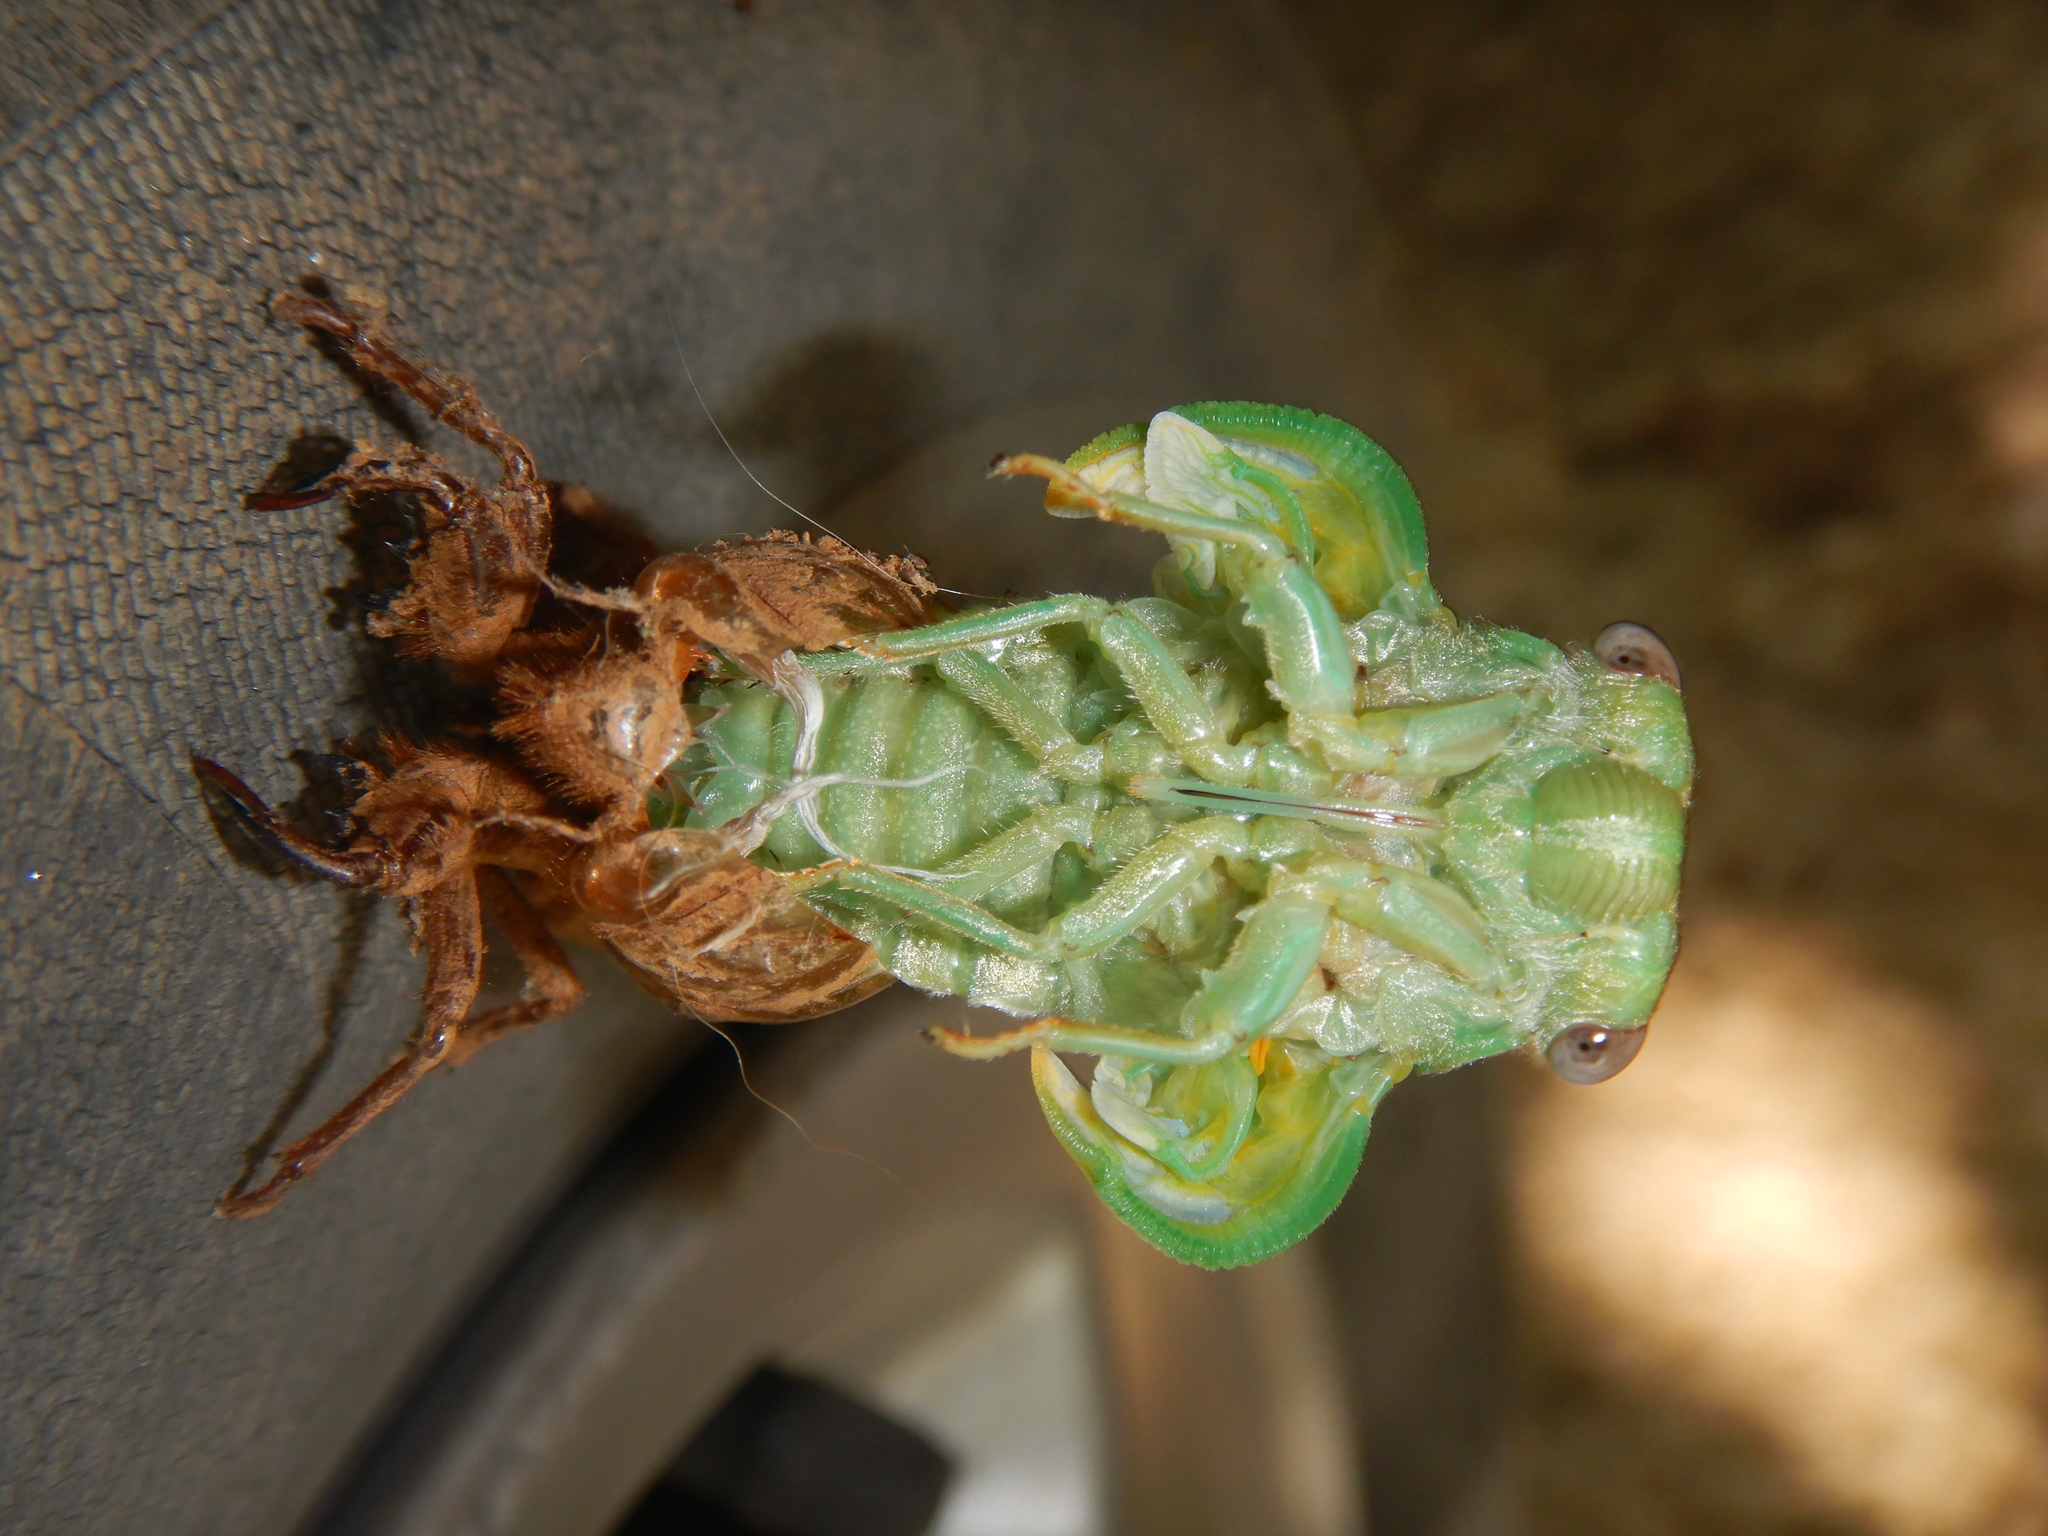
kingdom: Animalia
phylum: Arthropoda
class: Insecta
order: Hemiptera
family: Cicadidae
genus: Lyristes
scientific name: Lyristes plebejus
